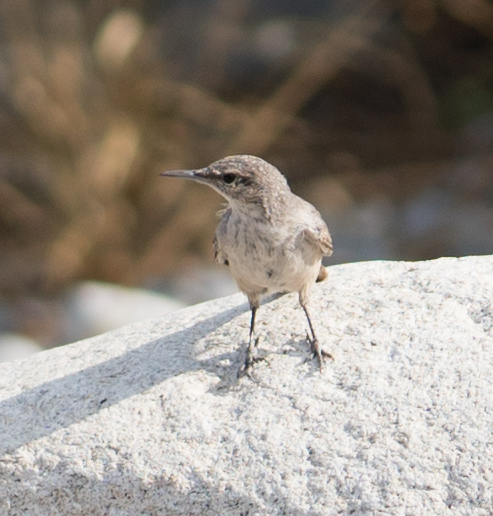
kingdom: Animalia
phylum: Chordata
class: Aves
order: Passeriformes
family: Troglodytidae
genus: Salpinctes
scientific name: Salpinctes obsoletus
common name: Rock wren
